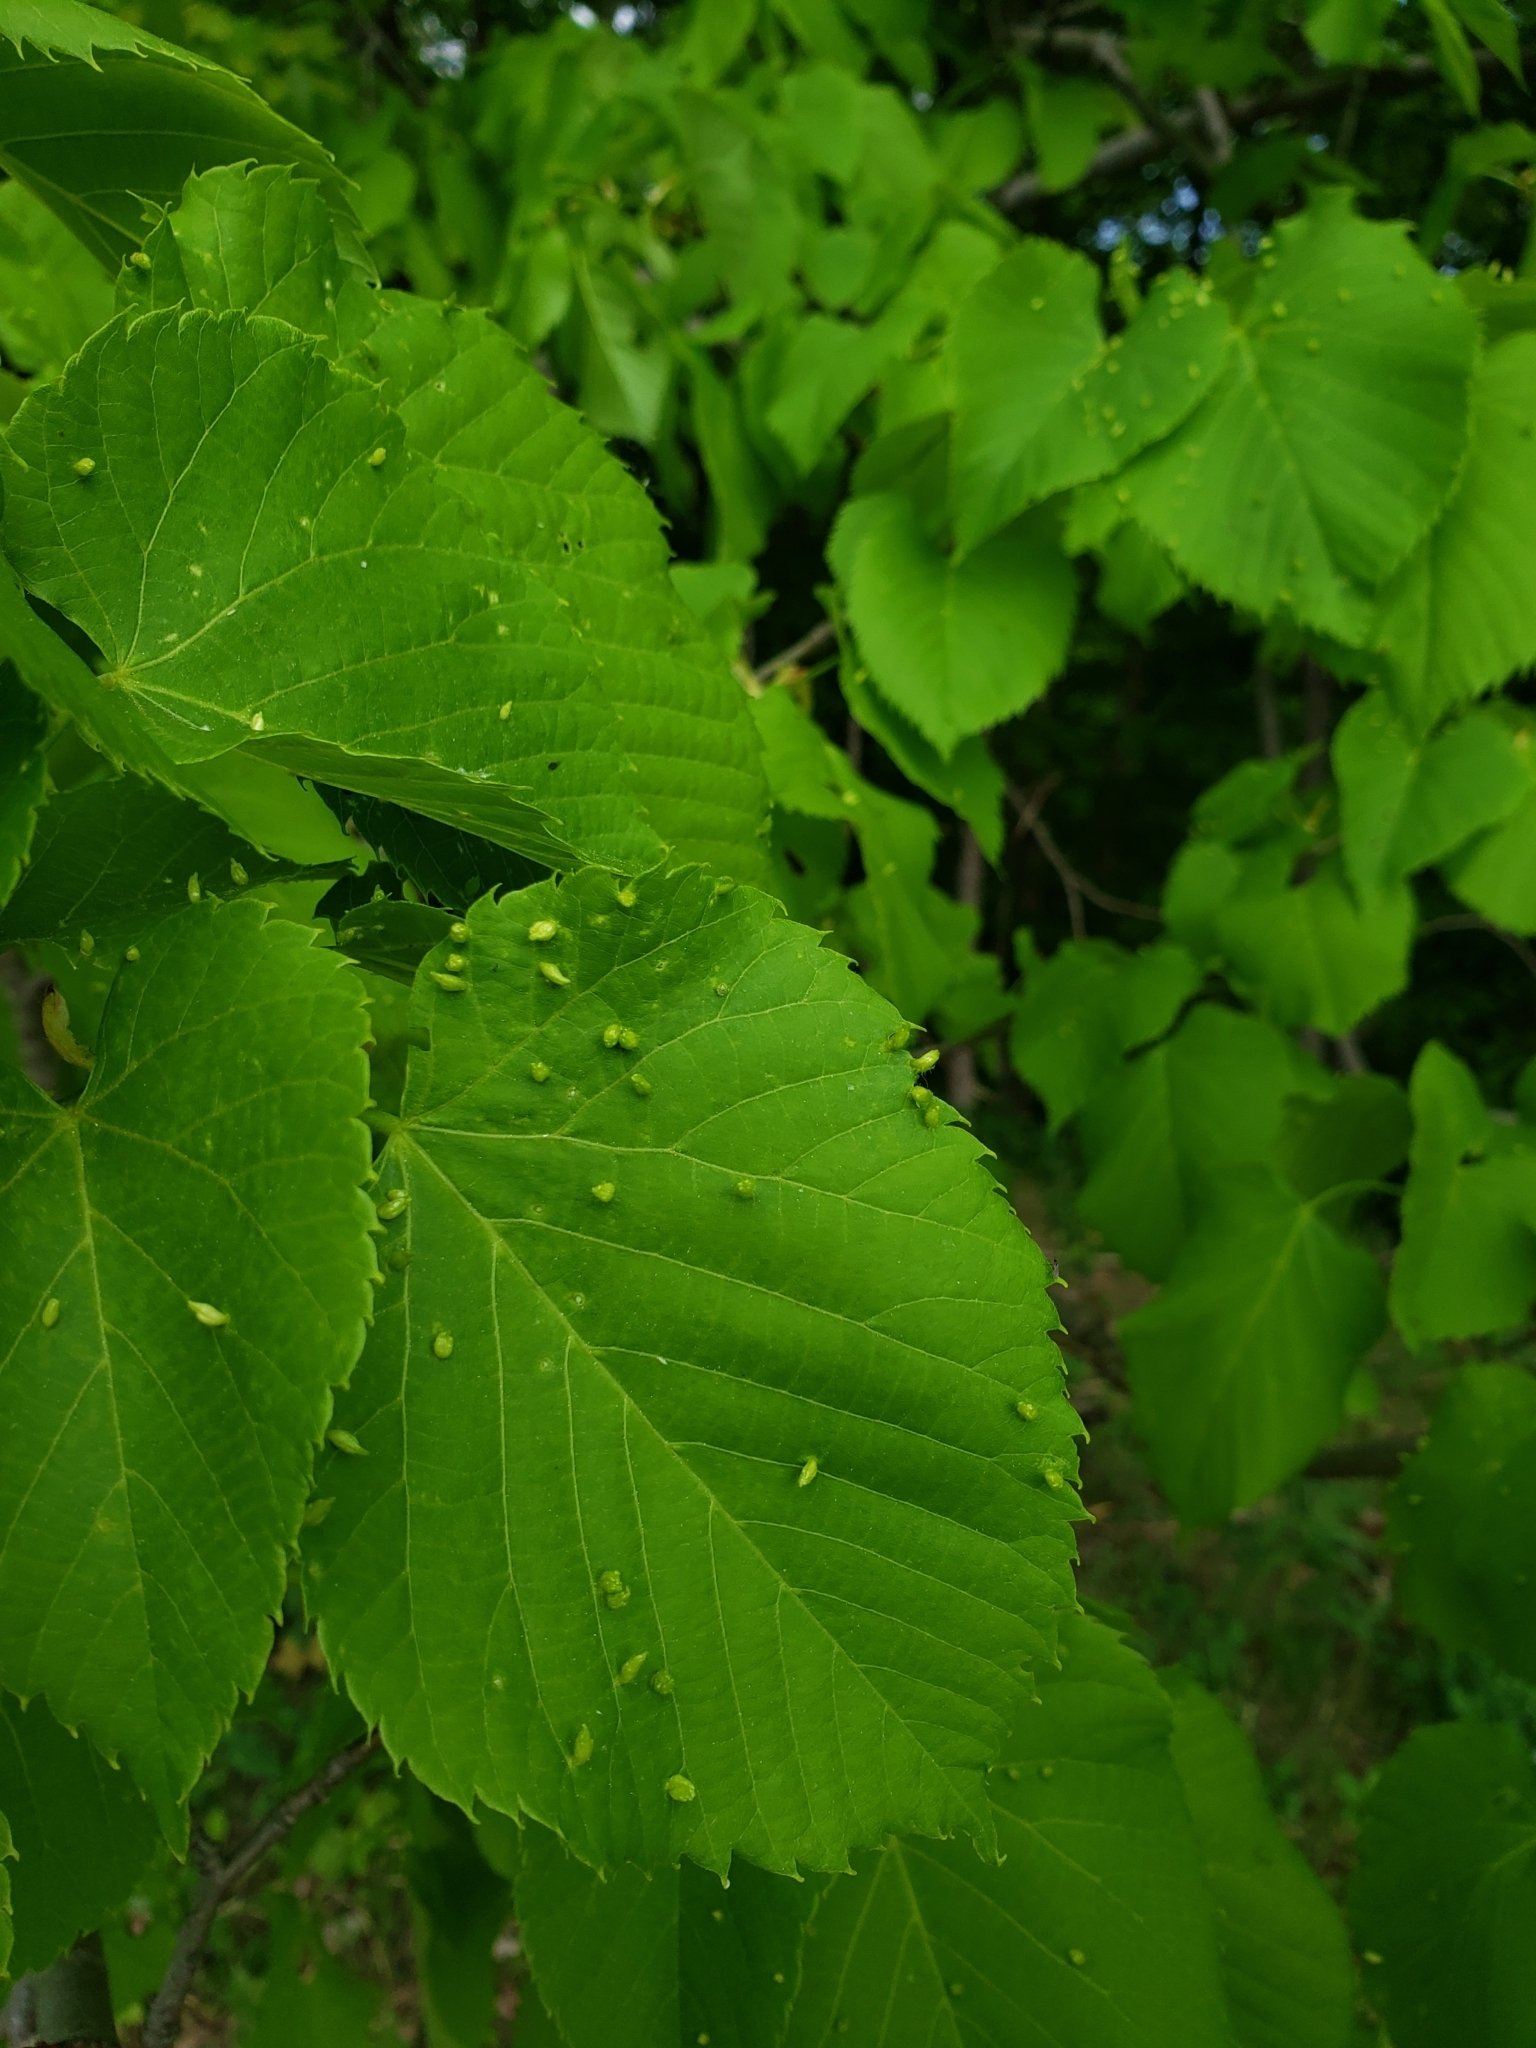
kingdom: Plantae
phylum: Tracheophyta
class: Magnoliopsida
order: Malvales
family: Malvaceae
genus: Tilia
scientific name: Tilia americana
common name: Basswood
